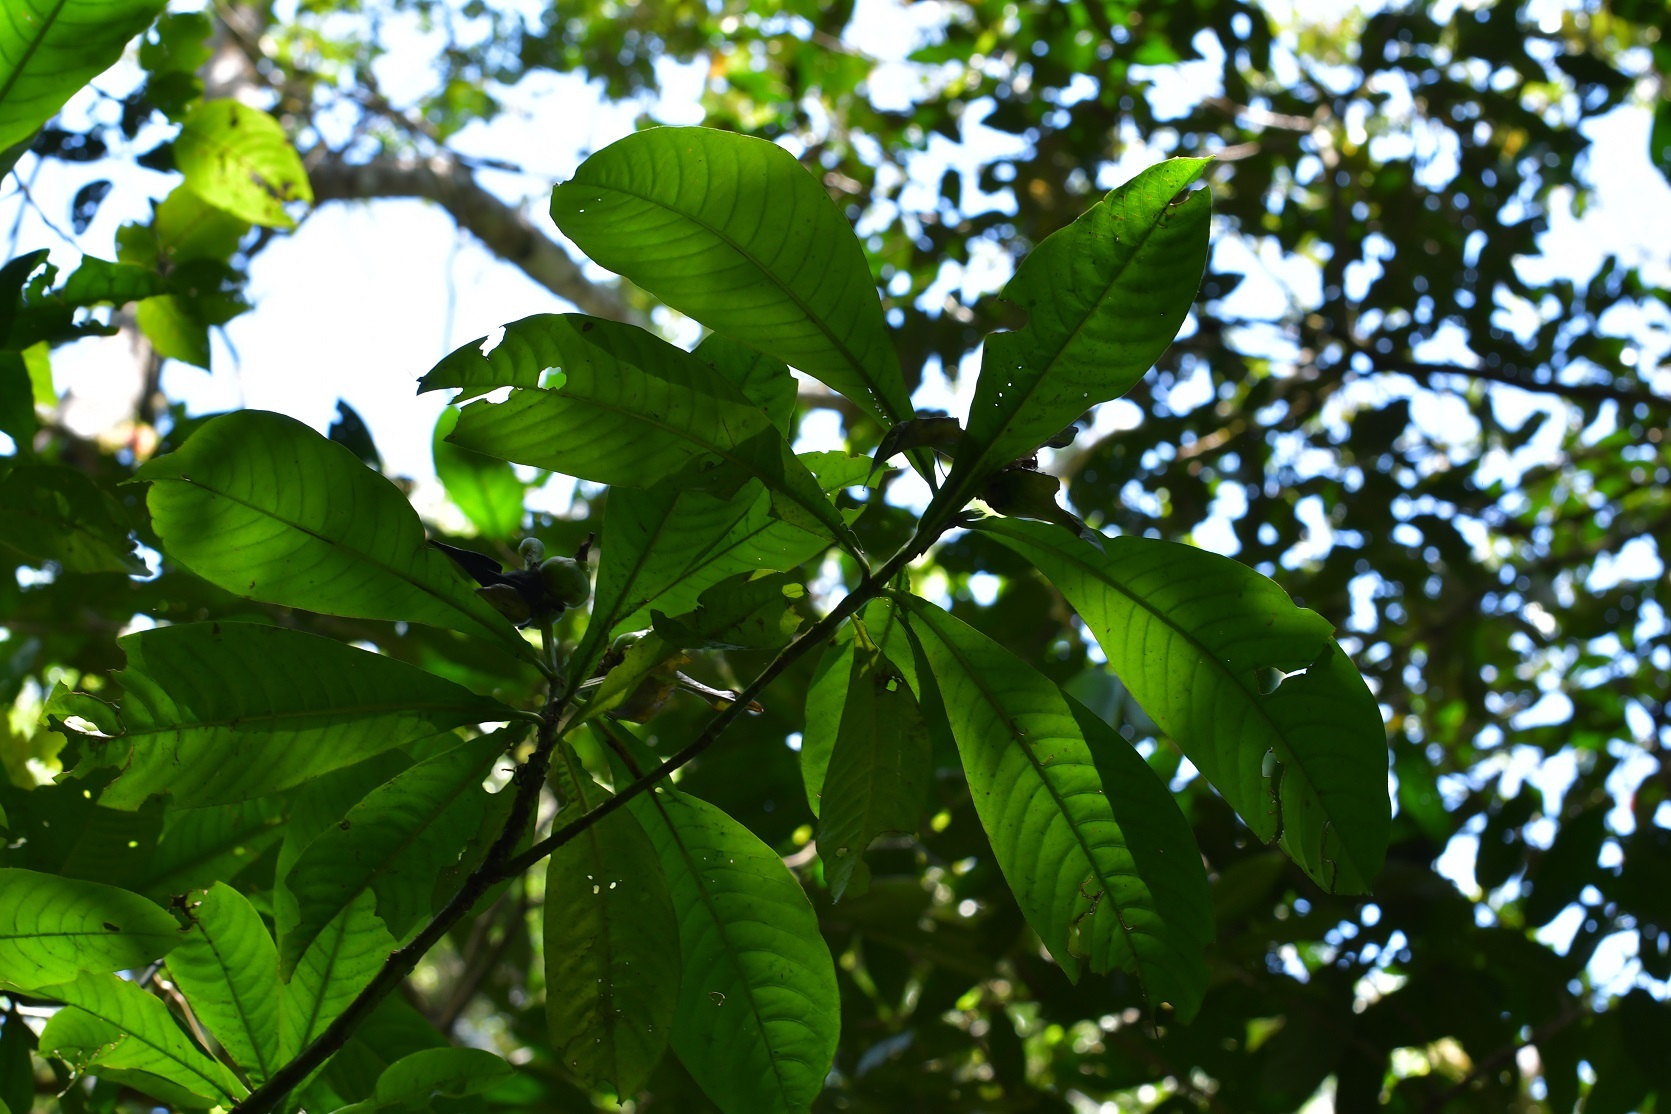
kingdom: Plantae
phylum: Tracheophyta
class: Magnoliopsida
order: Lamiales
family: Acanthaceae
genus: Justicia
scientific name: Justicia borrerae
